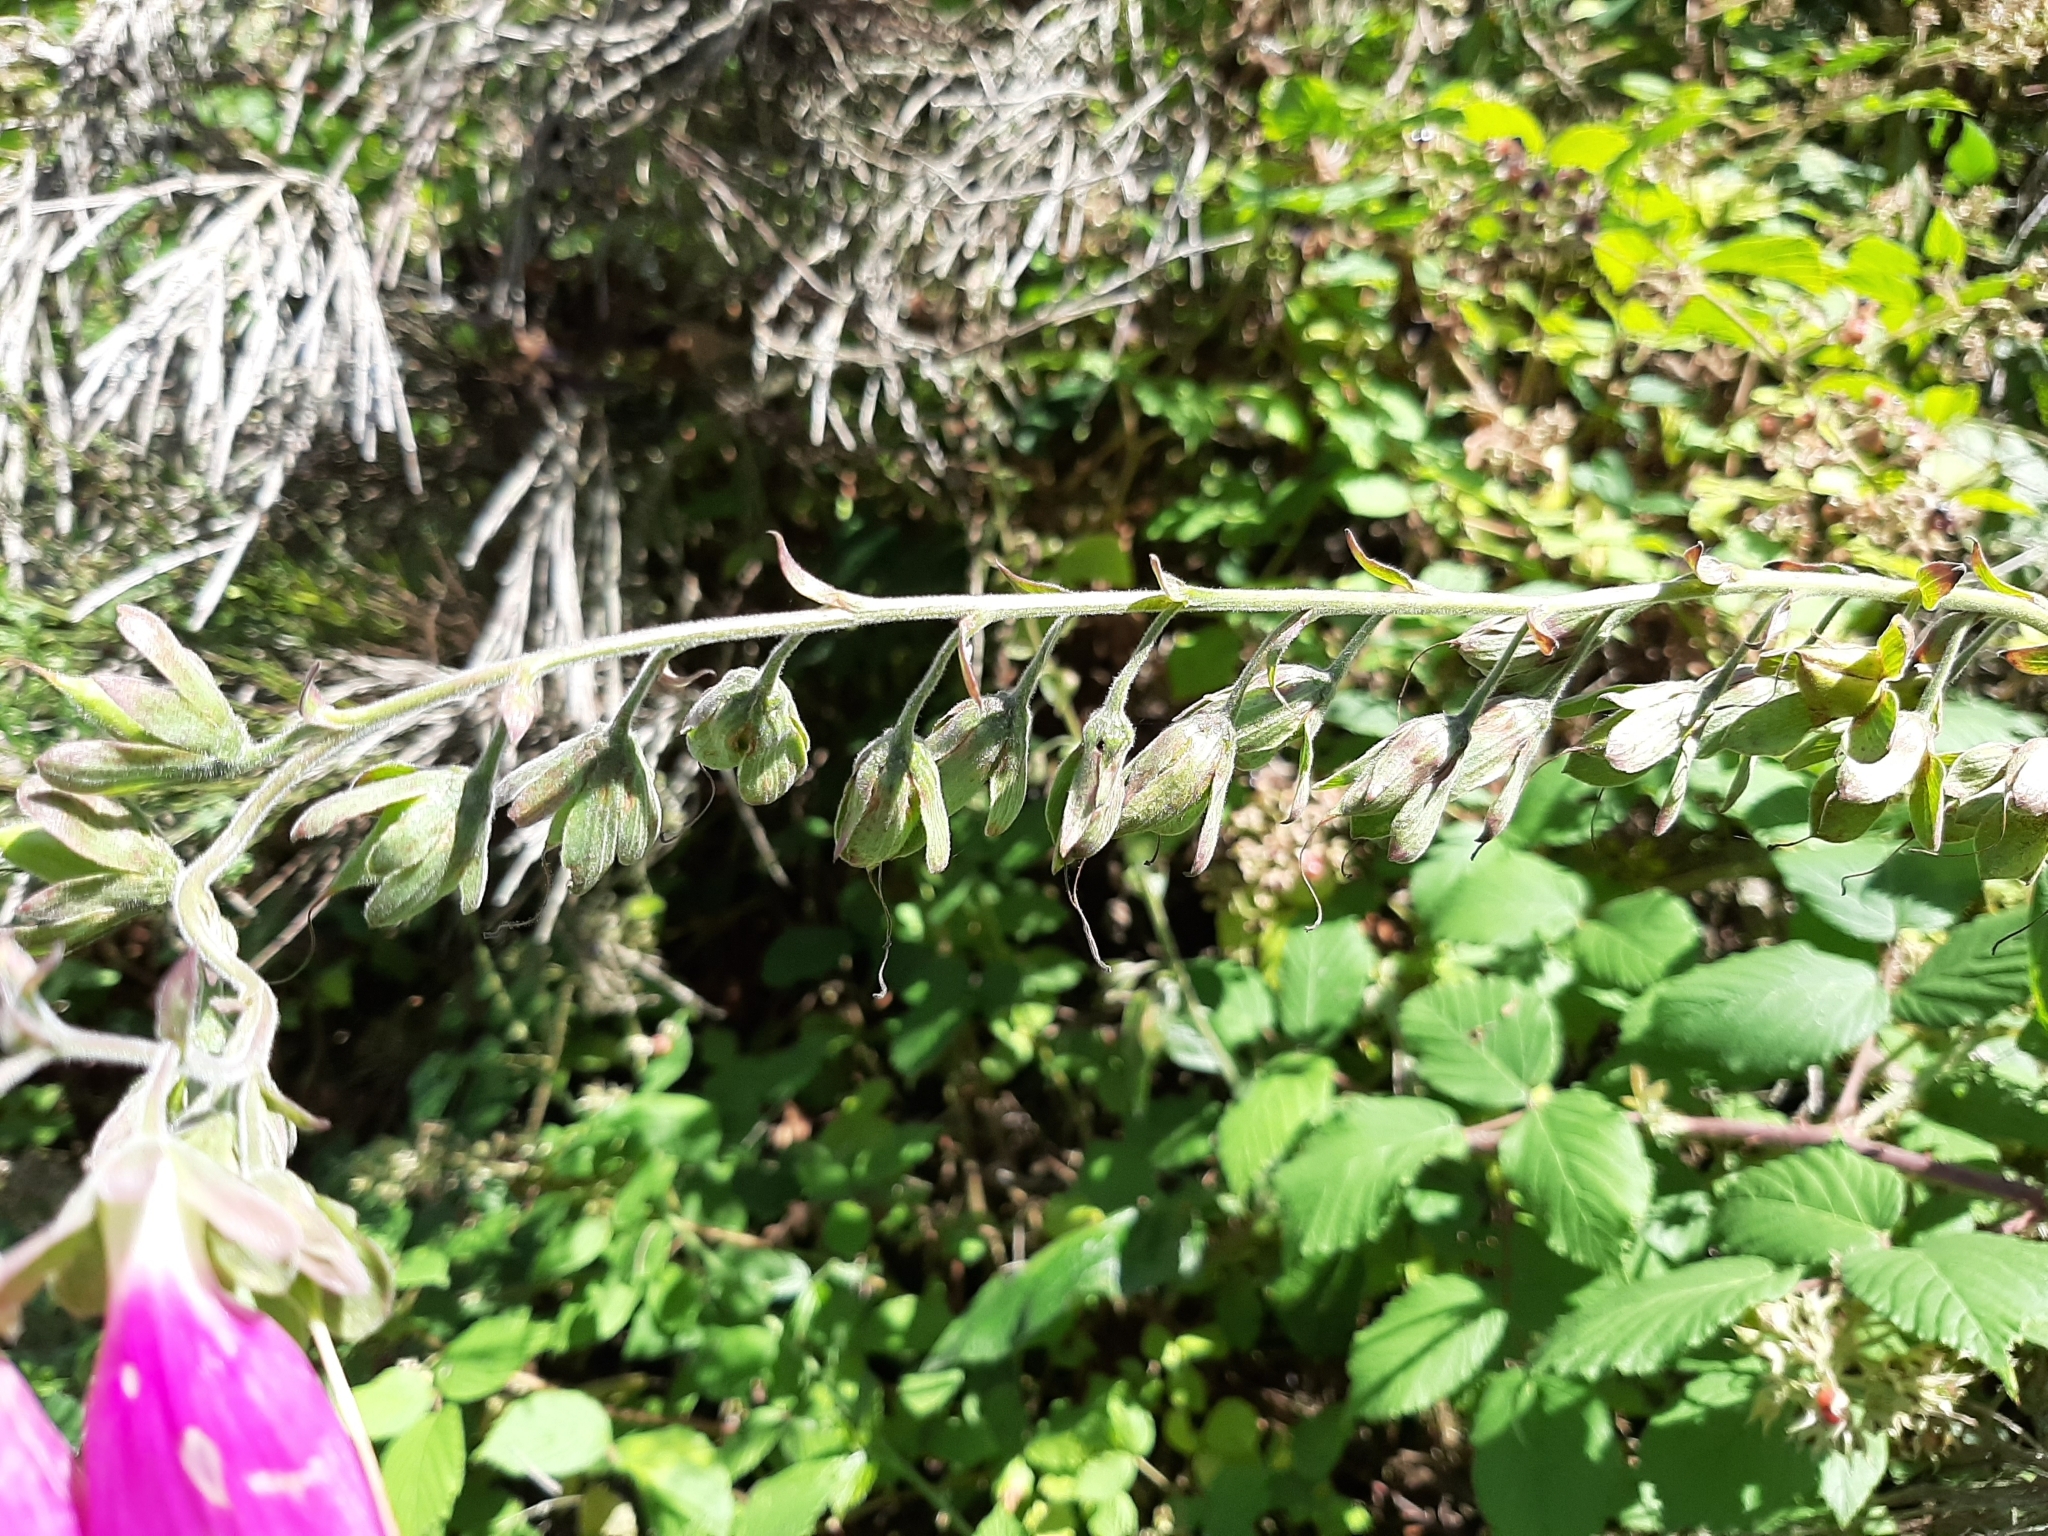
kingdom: Plantae
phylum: Tracheophyta
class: Magnoliopsida
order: Lamiales
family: Plantaginaceae
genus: Digitalis
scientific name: Digitalis purpurea
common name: Foxglove
